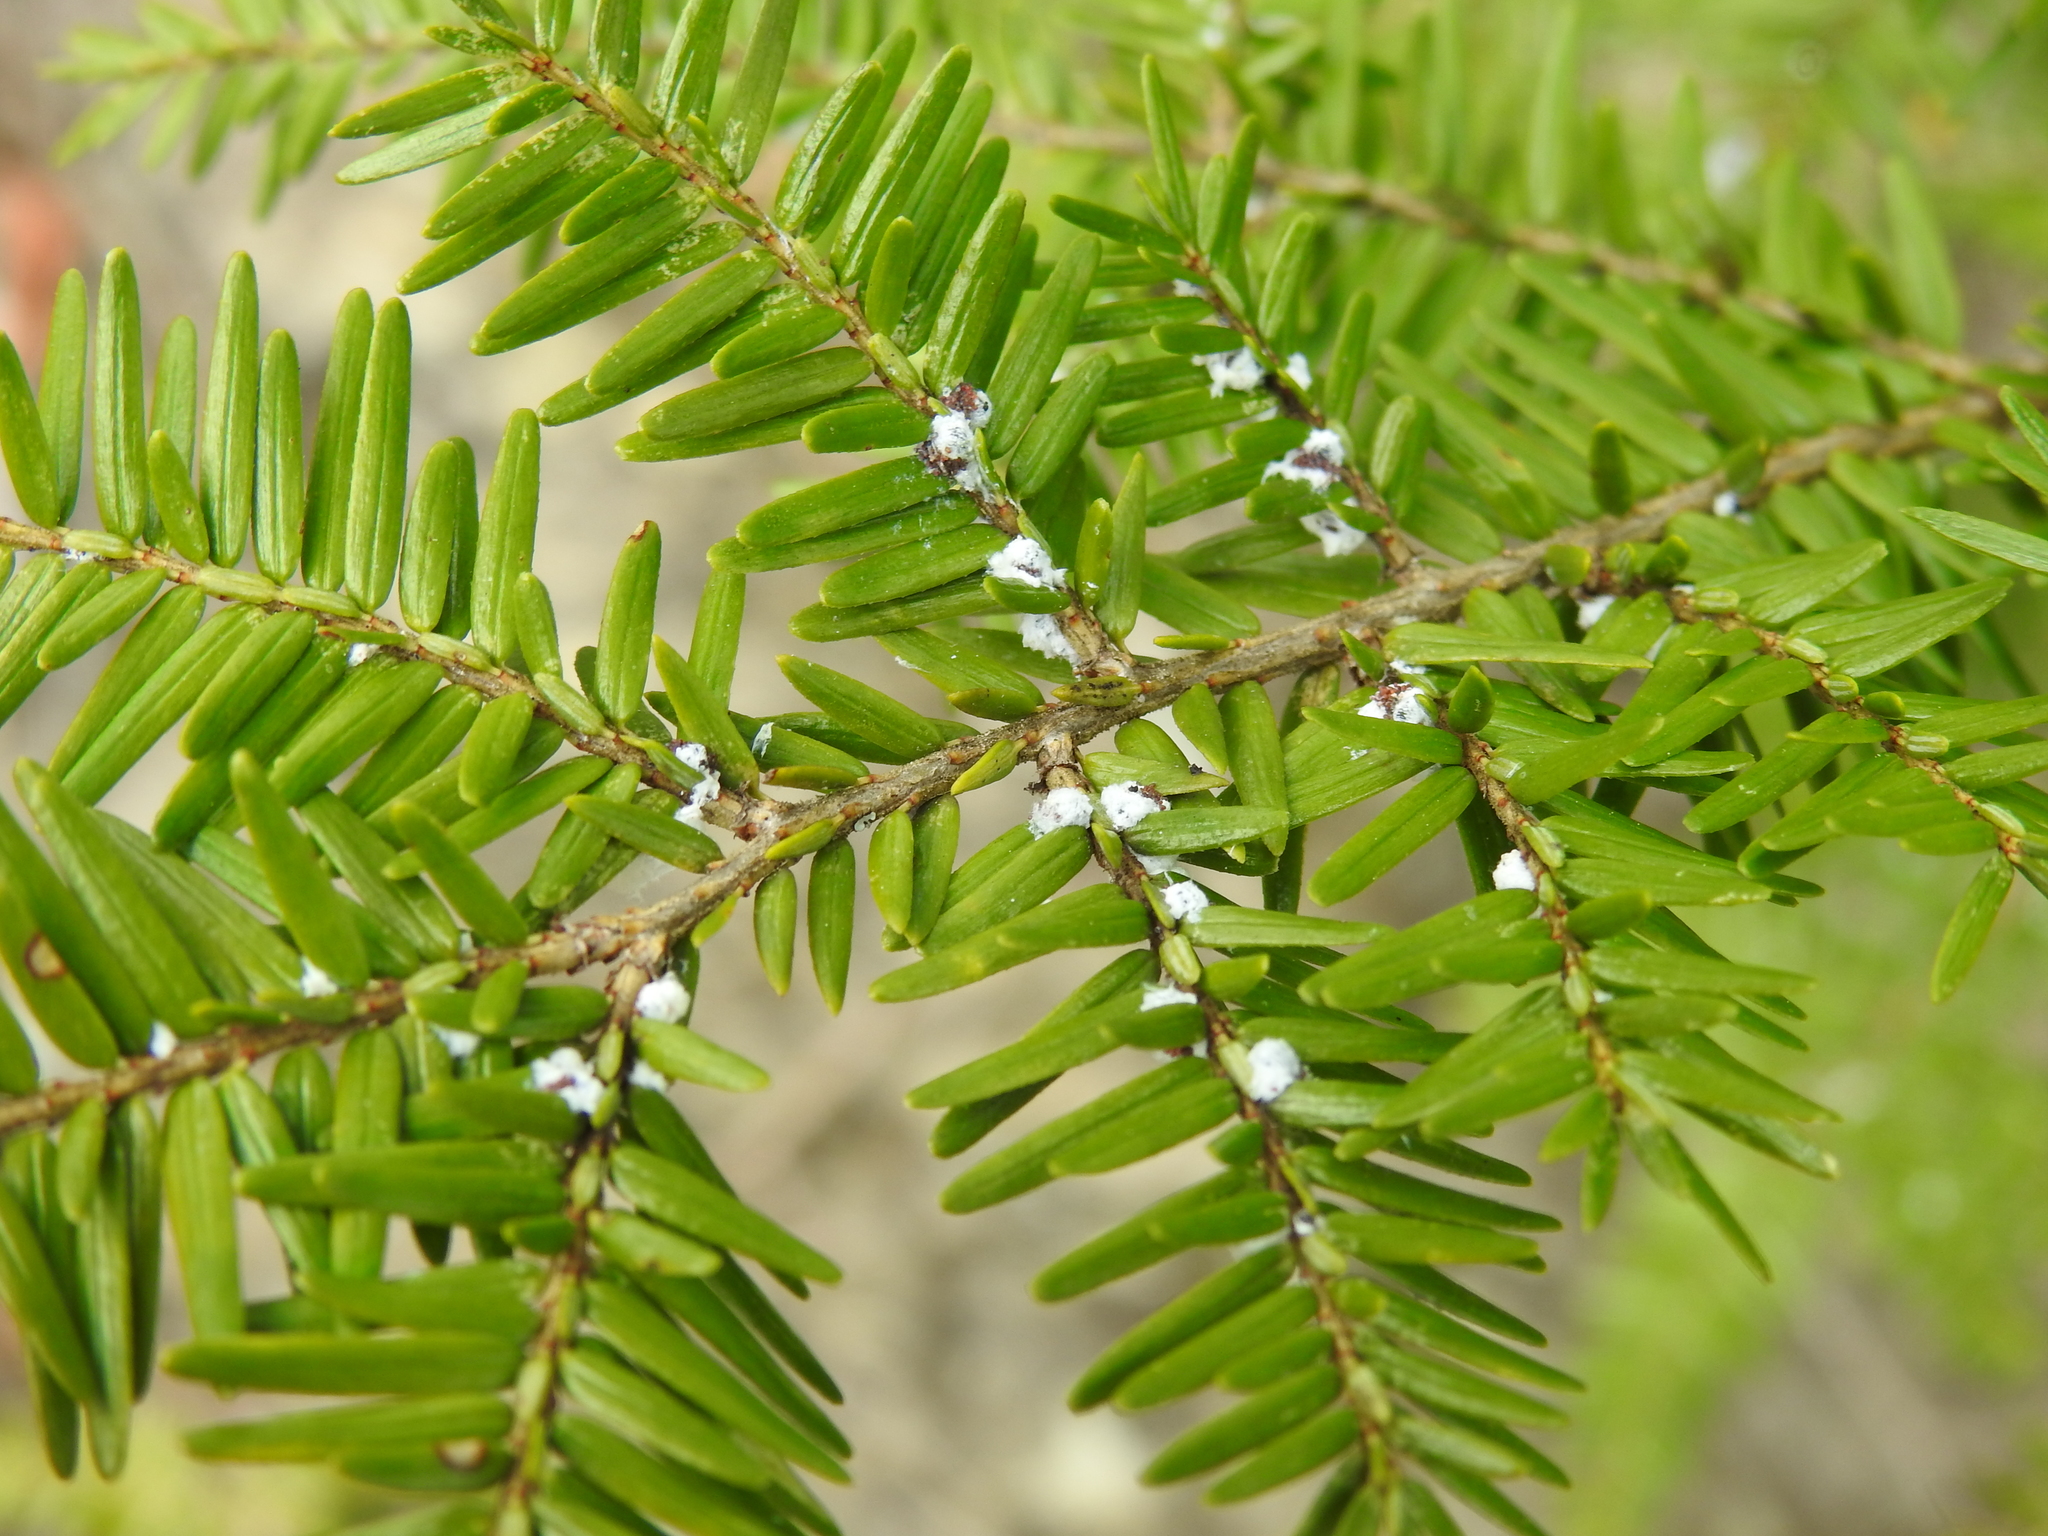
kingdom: Animalia
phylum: Arthropoda
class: Insecta
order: Hemiptera
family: Adelgidae
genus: Adelges
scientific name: Adelges tsugae
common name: Hemlock woolly adelgid
